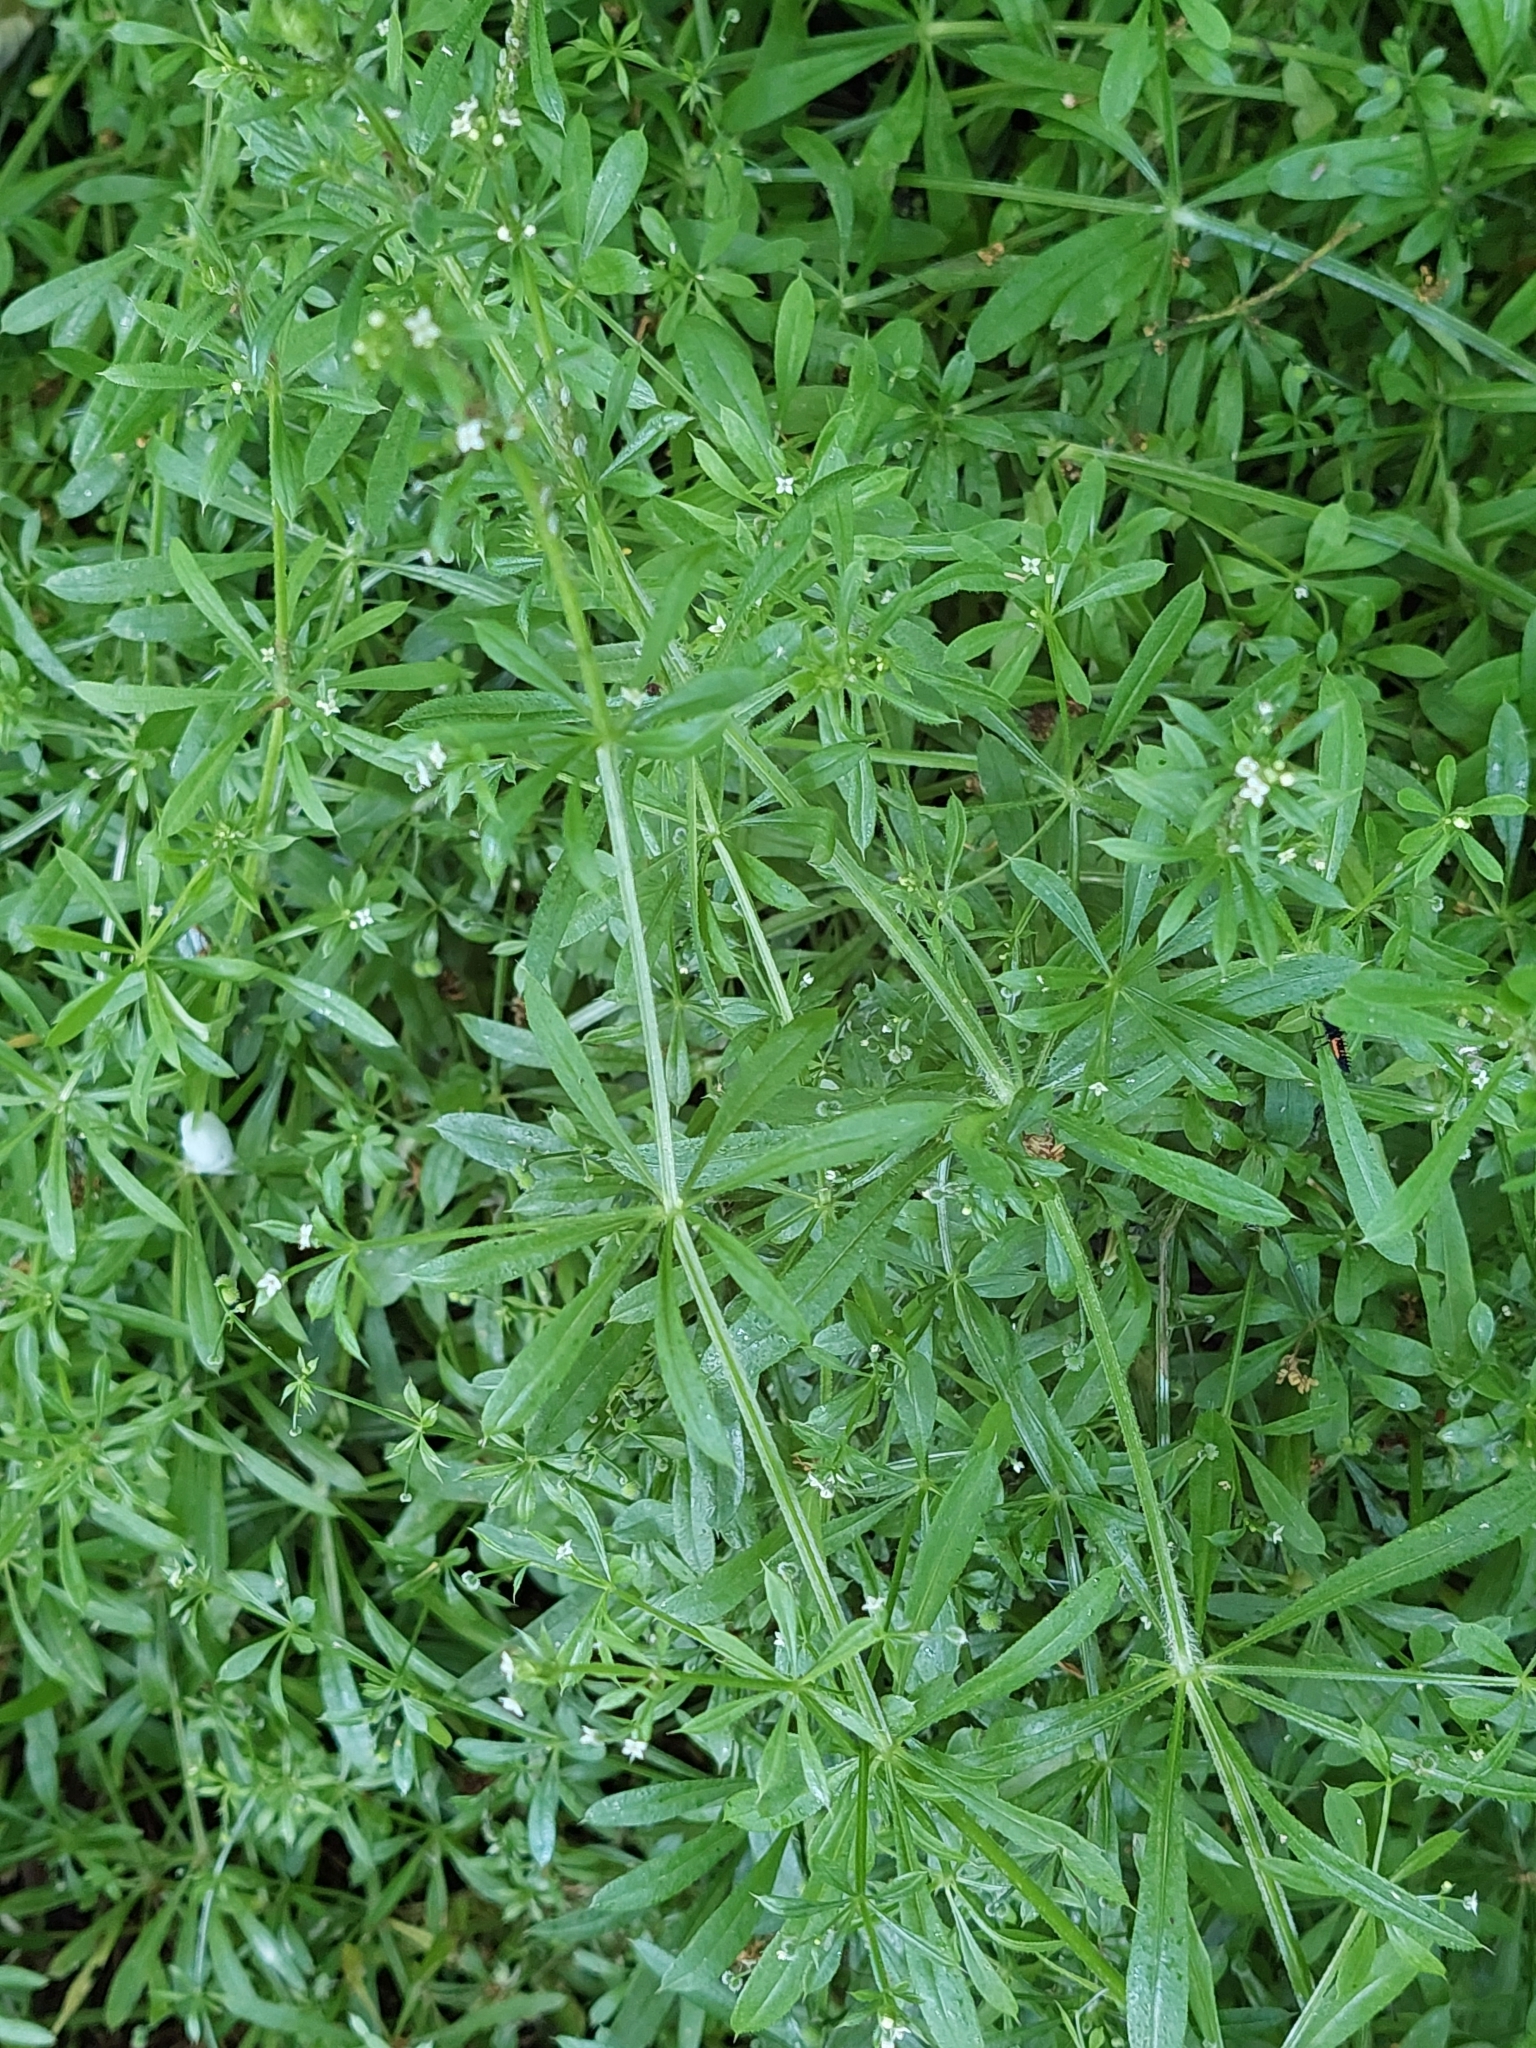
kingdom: Plantae
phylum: Tracheophyta
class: Magnoliopsida
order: Gentianales
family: Rubiaceae
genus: Galium
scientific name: Galium aparine
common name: Cleavers
